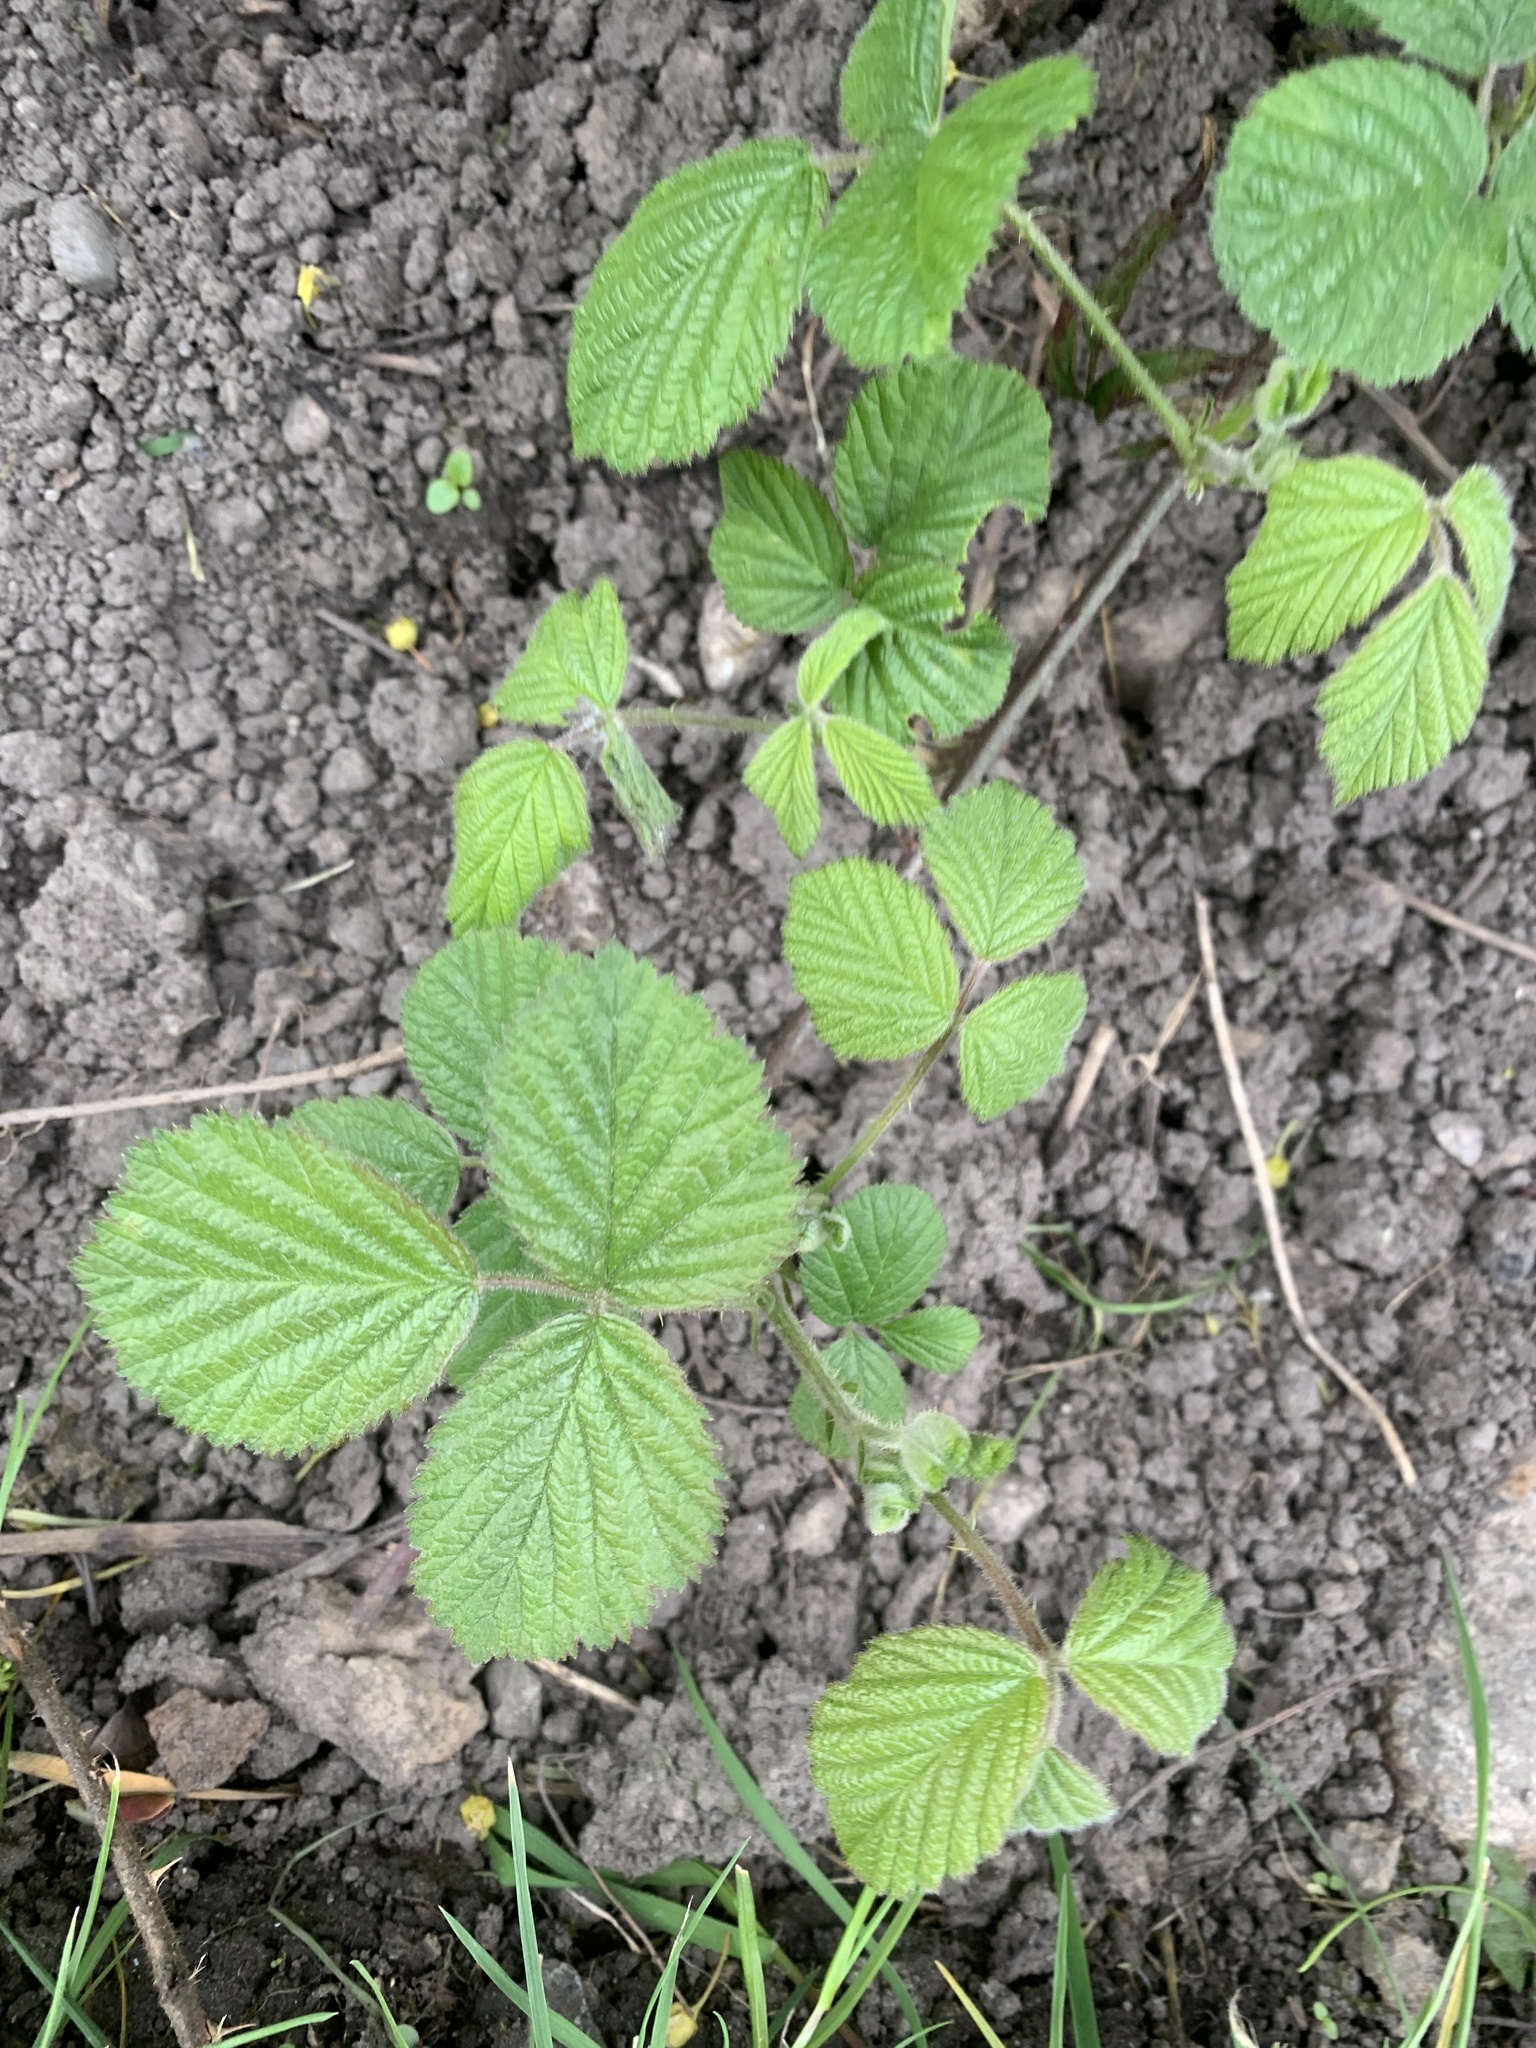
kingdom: Plantae
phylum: Tracheophyta
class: Magnoliopsida
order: Rosales
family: Rosaceae
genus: Rubus
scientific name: Rubus fruticosus
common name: Blackberry, bramble
